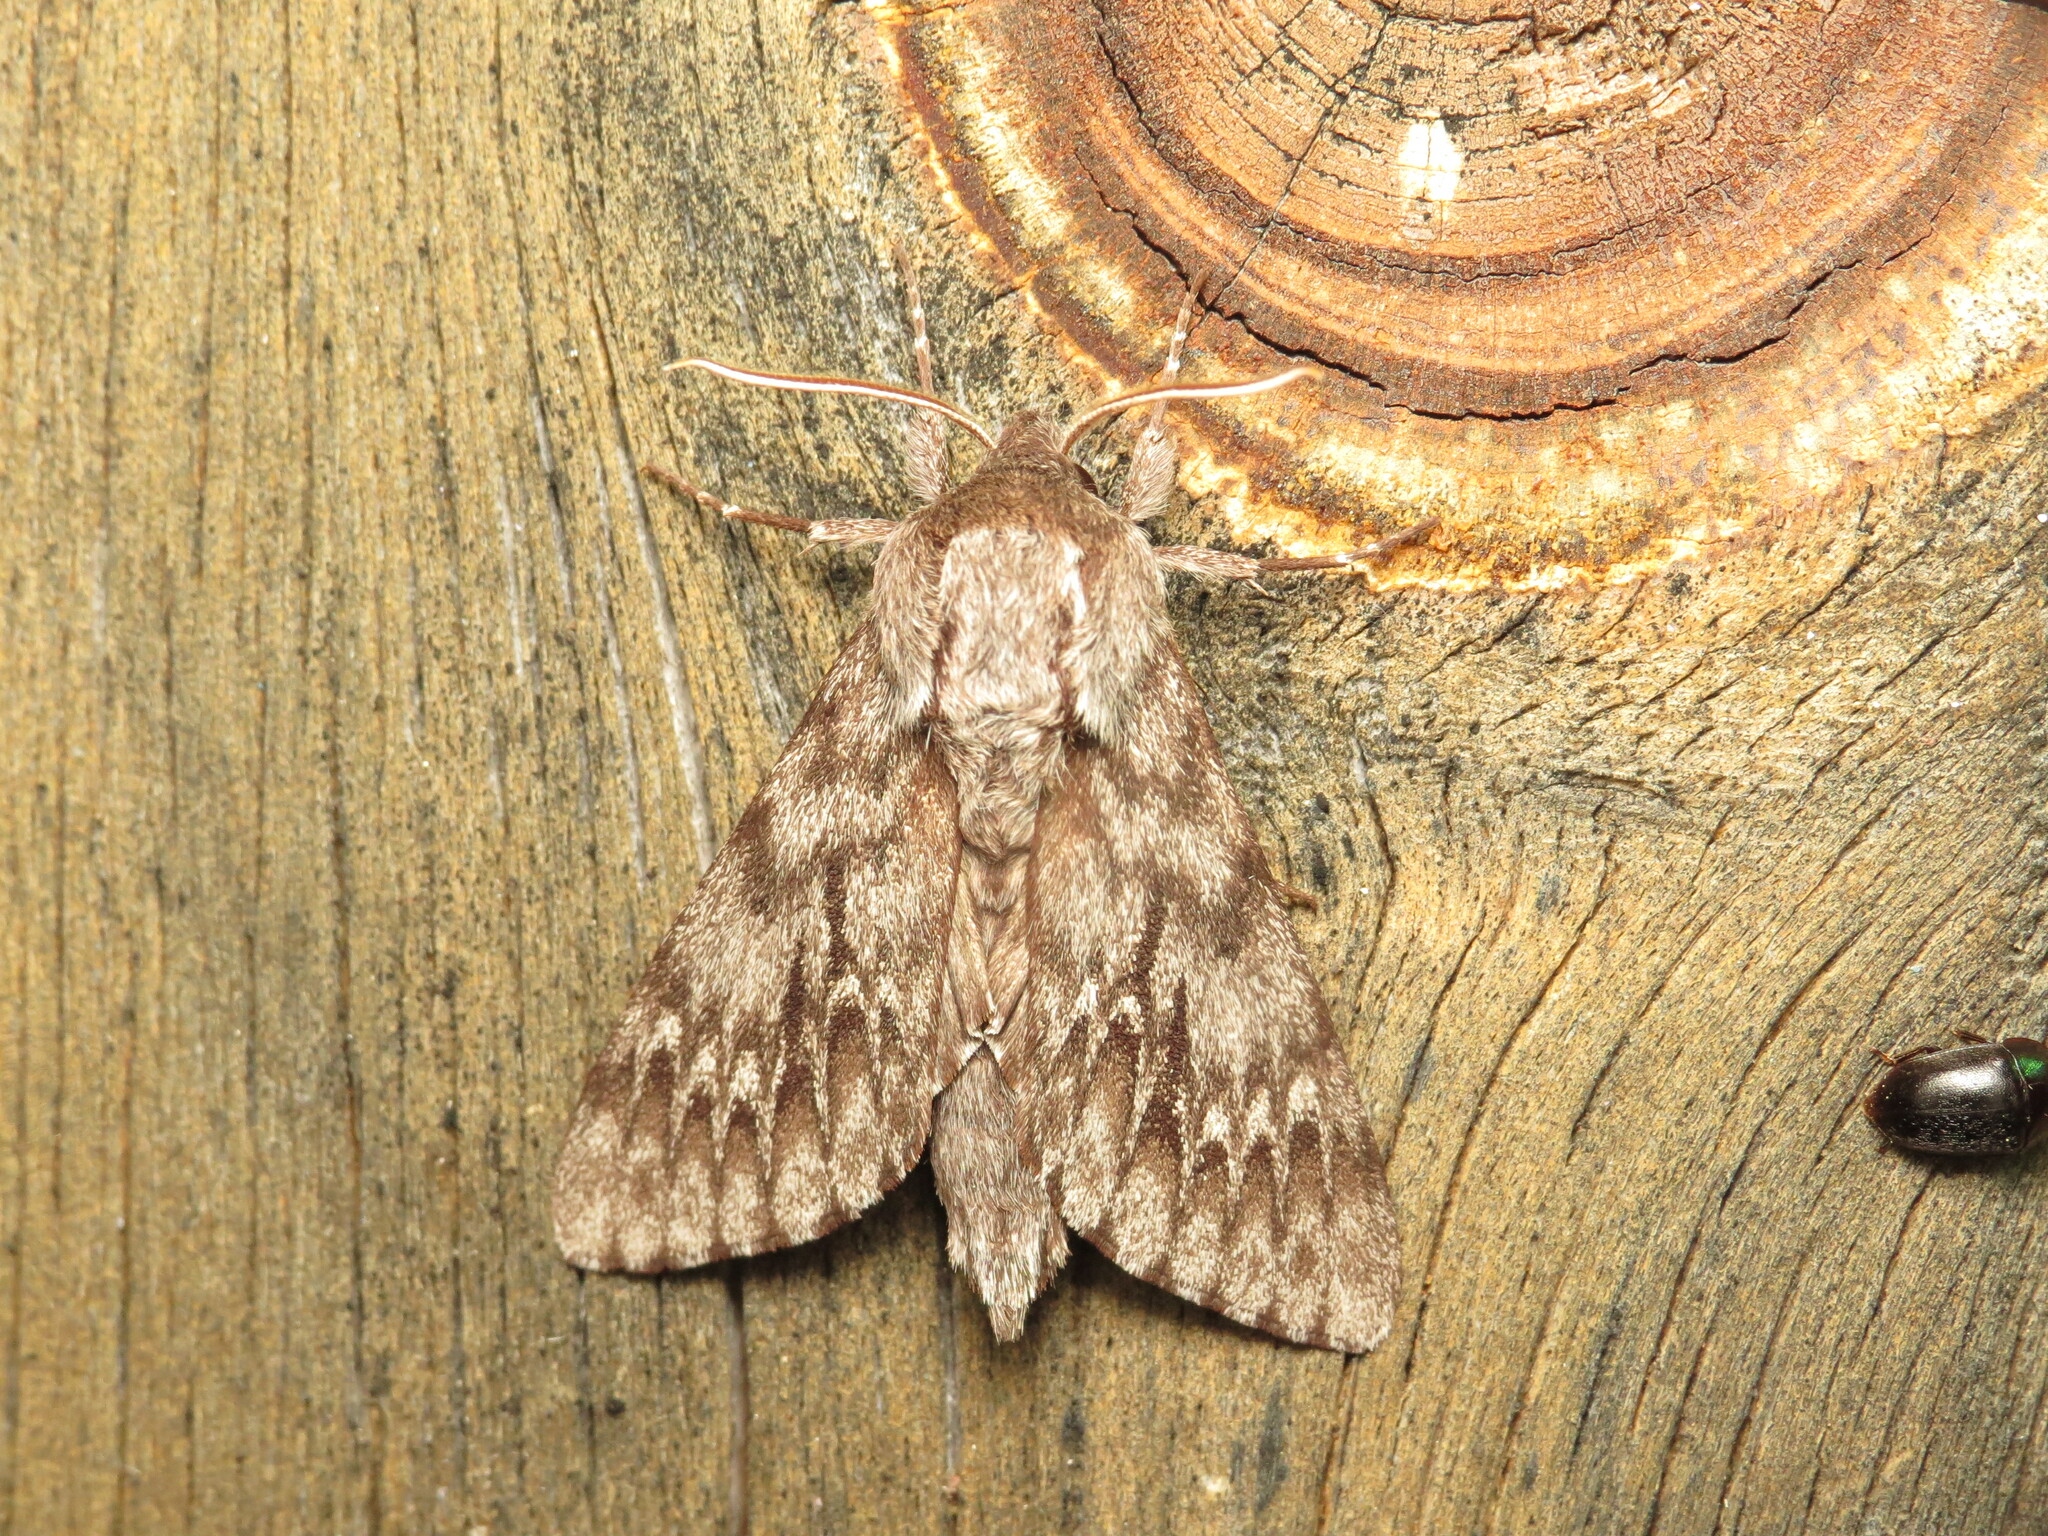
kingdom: Animalia
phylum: Arthropoda
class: Insecta
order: Lepidoptera
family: Sphingidae
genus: Lapara
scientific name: Lapara bombycoides
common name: Northern pine sphinx
